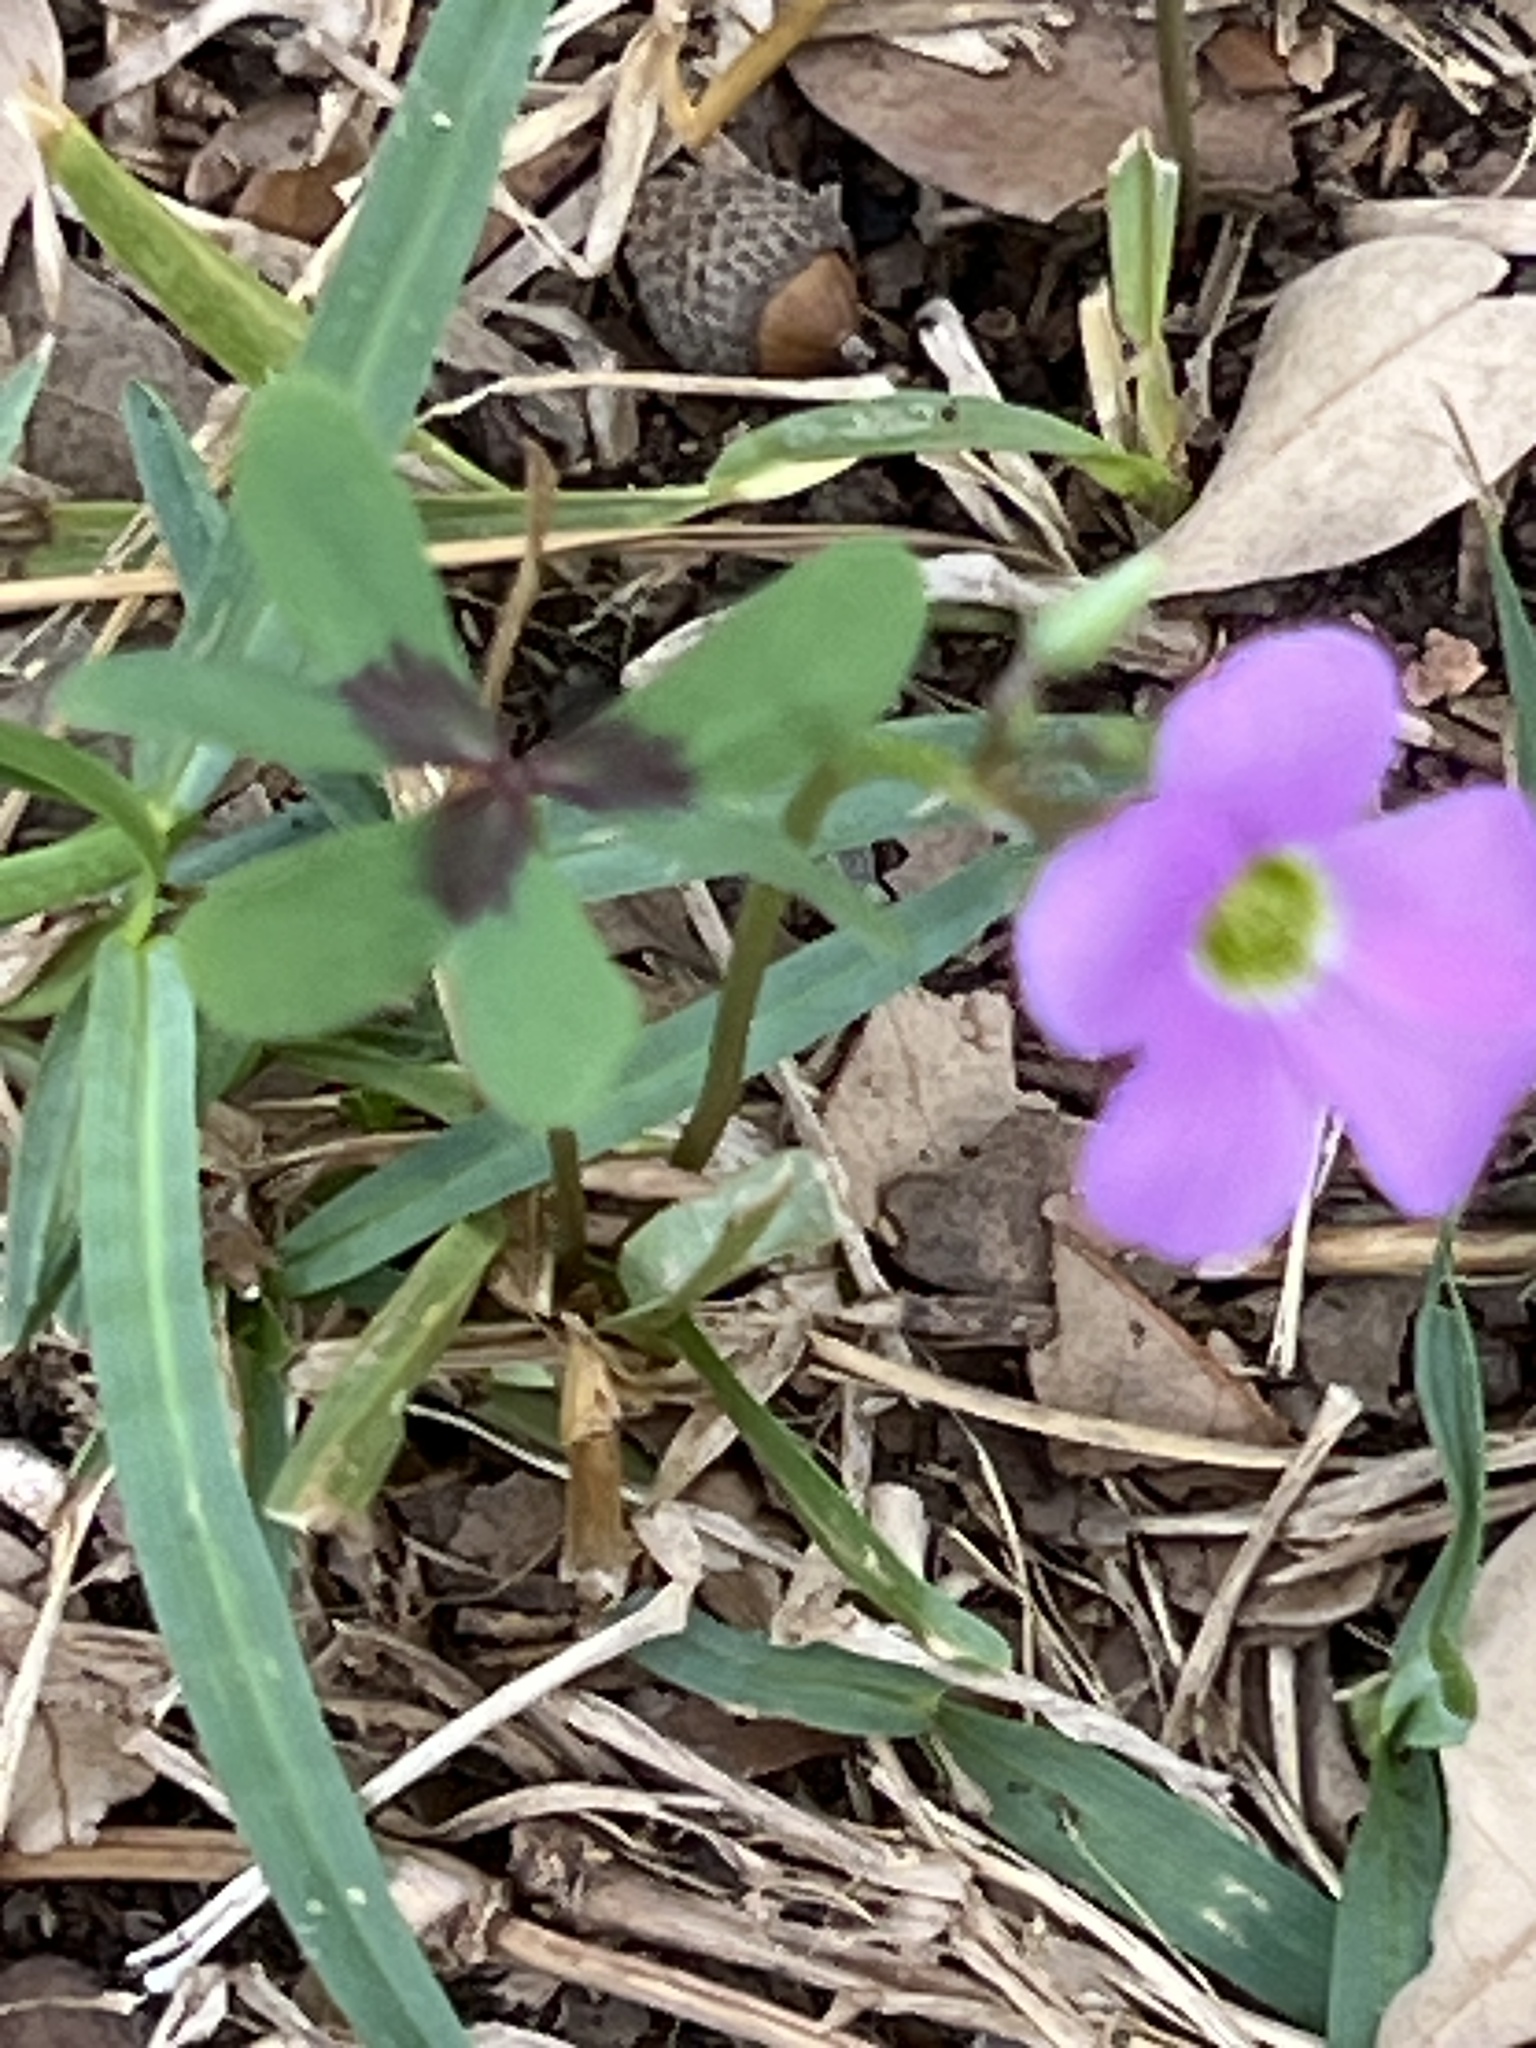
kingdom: Plantae
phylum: Tracheophyta
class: Magnoliopsida
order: Oxalidales
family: Oxalidaceae
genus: Oxalis
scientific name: Oxalis drummondii
